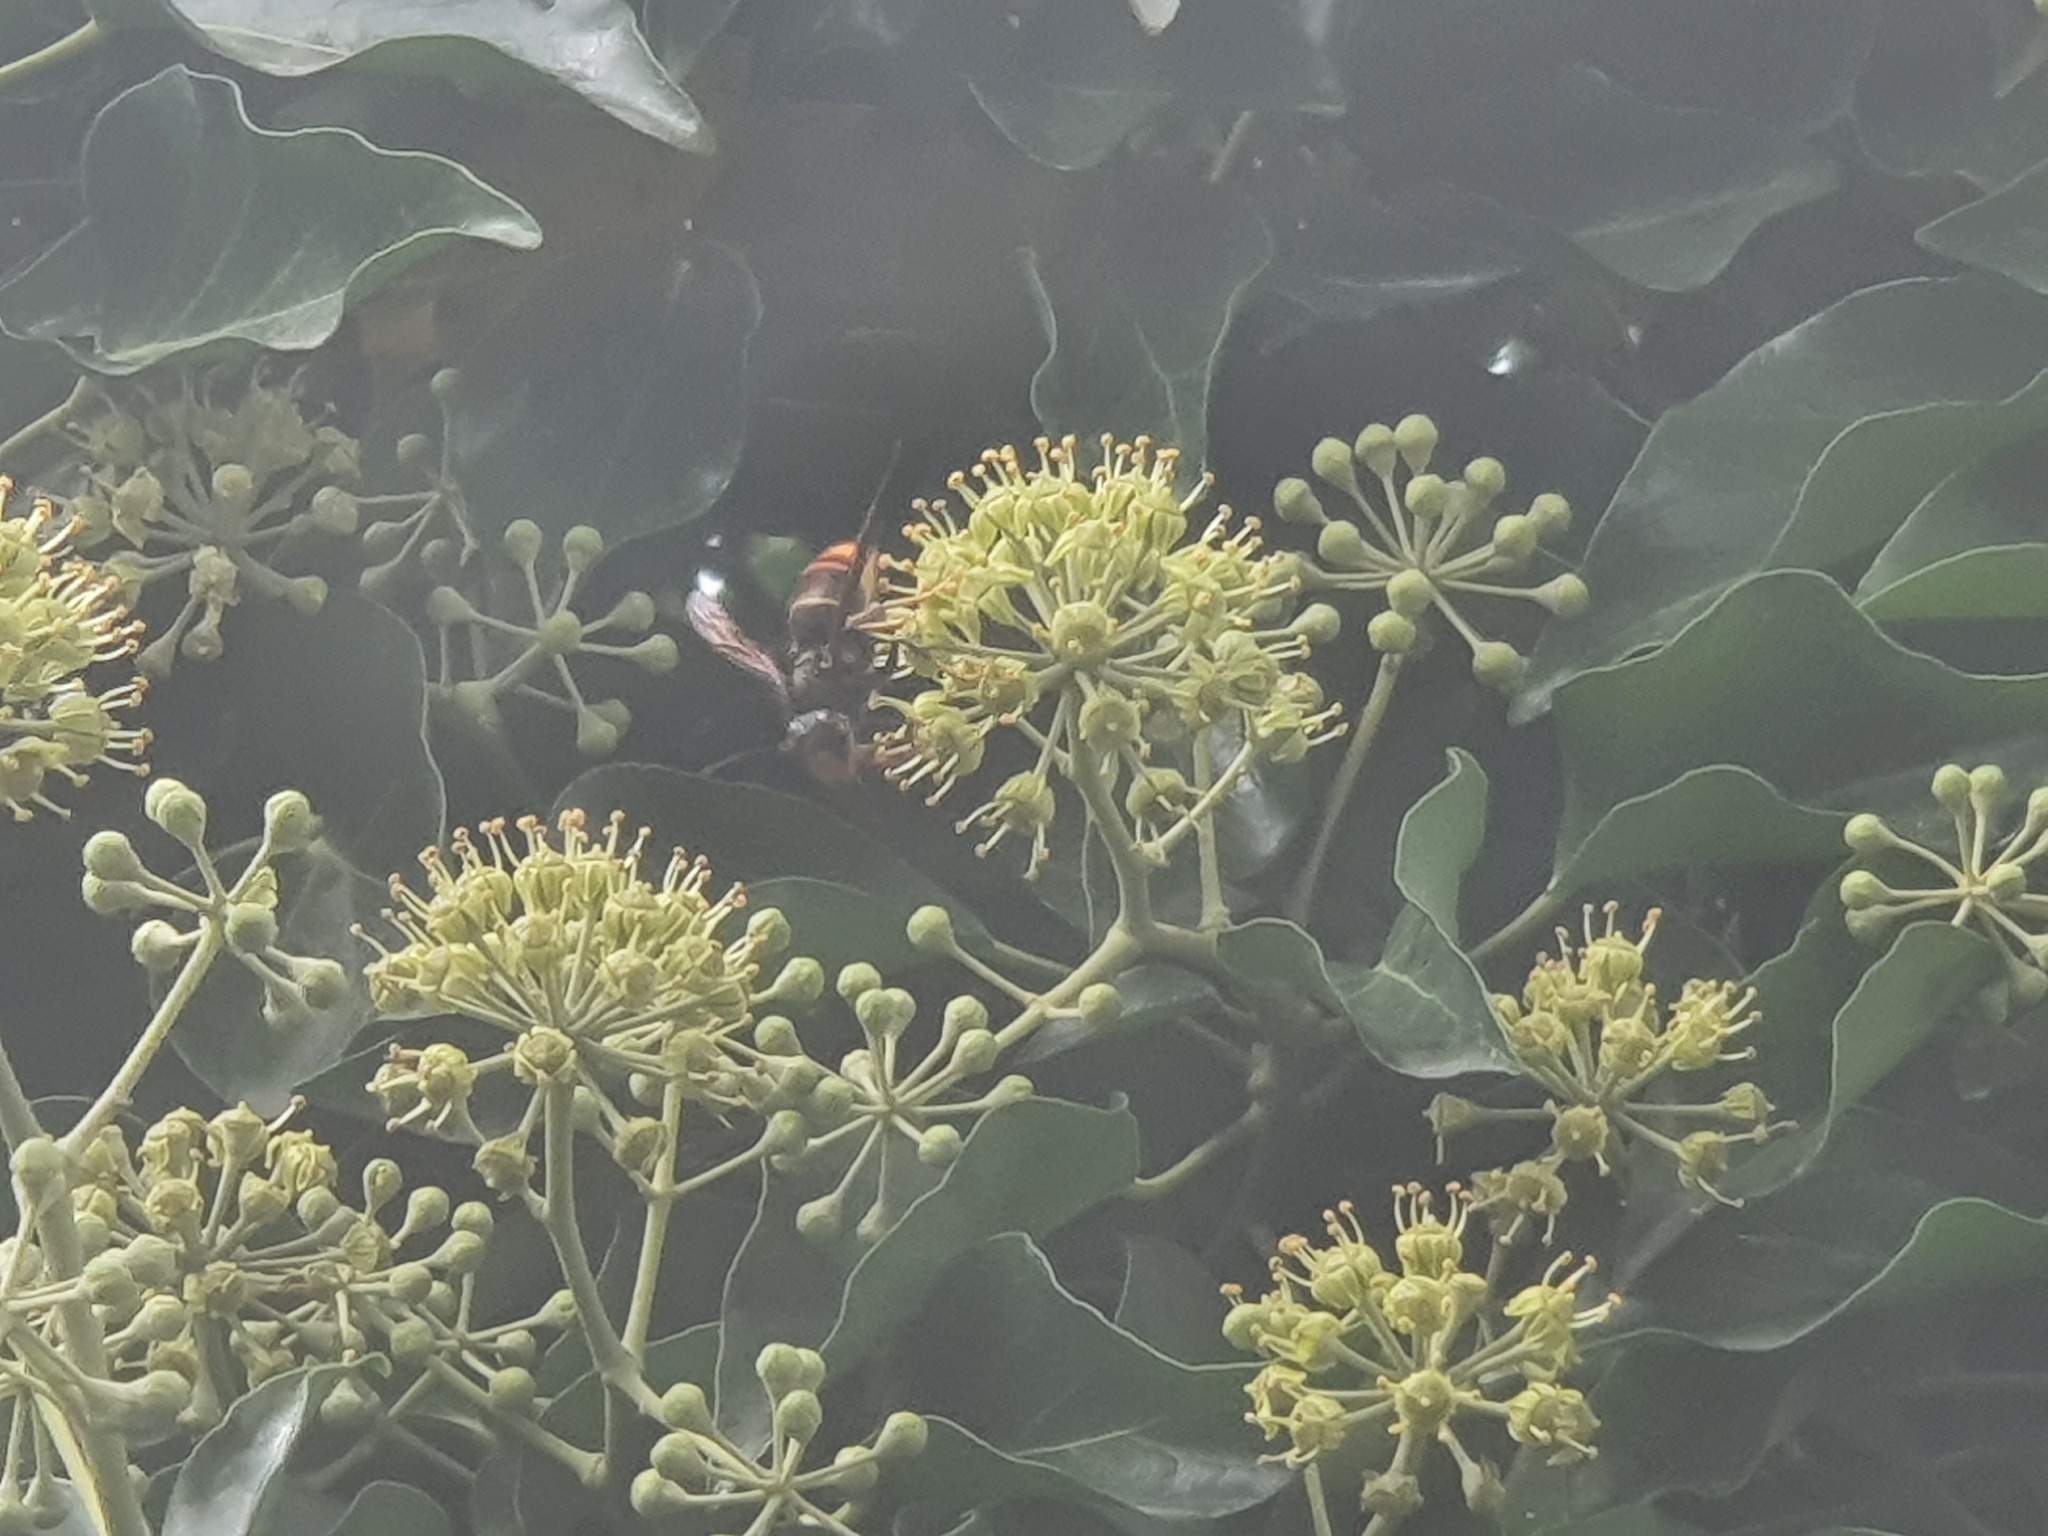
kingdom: Animalia
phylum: Arthropoda
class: Insecta
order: Hymenoptera
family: Vespidae
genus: Vespa
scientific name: Vespa velutina
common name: Asian hornet
